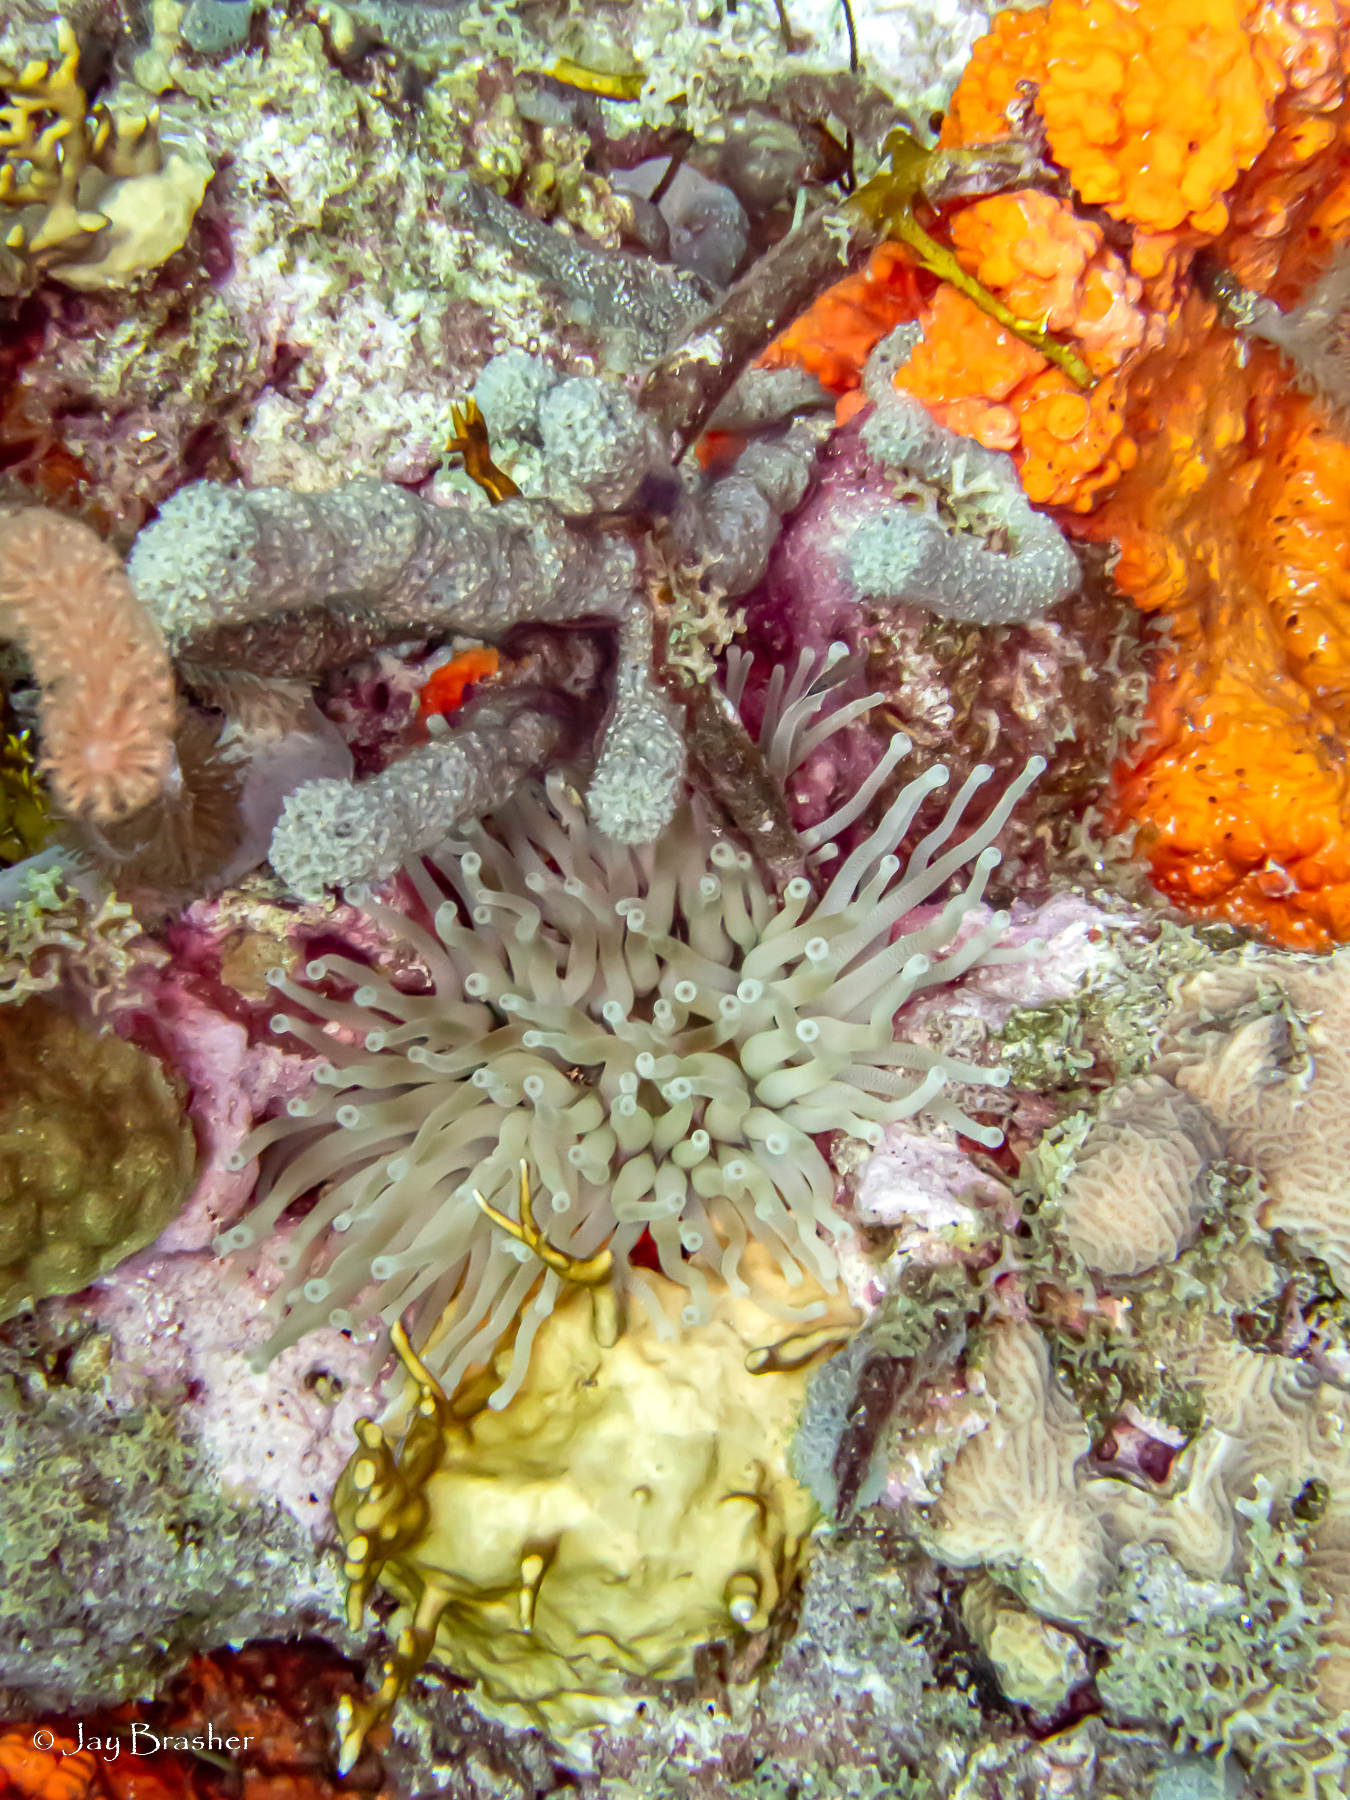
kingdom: Animalia
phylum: Cnidaria
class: Anthozoa
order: Actiniaria
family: Actiniidae
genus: Condylactis
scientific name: Condylactis gigantea
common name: Giant caribbean anemone
